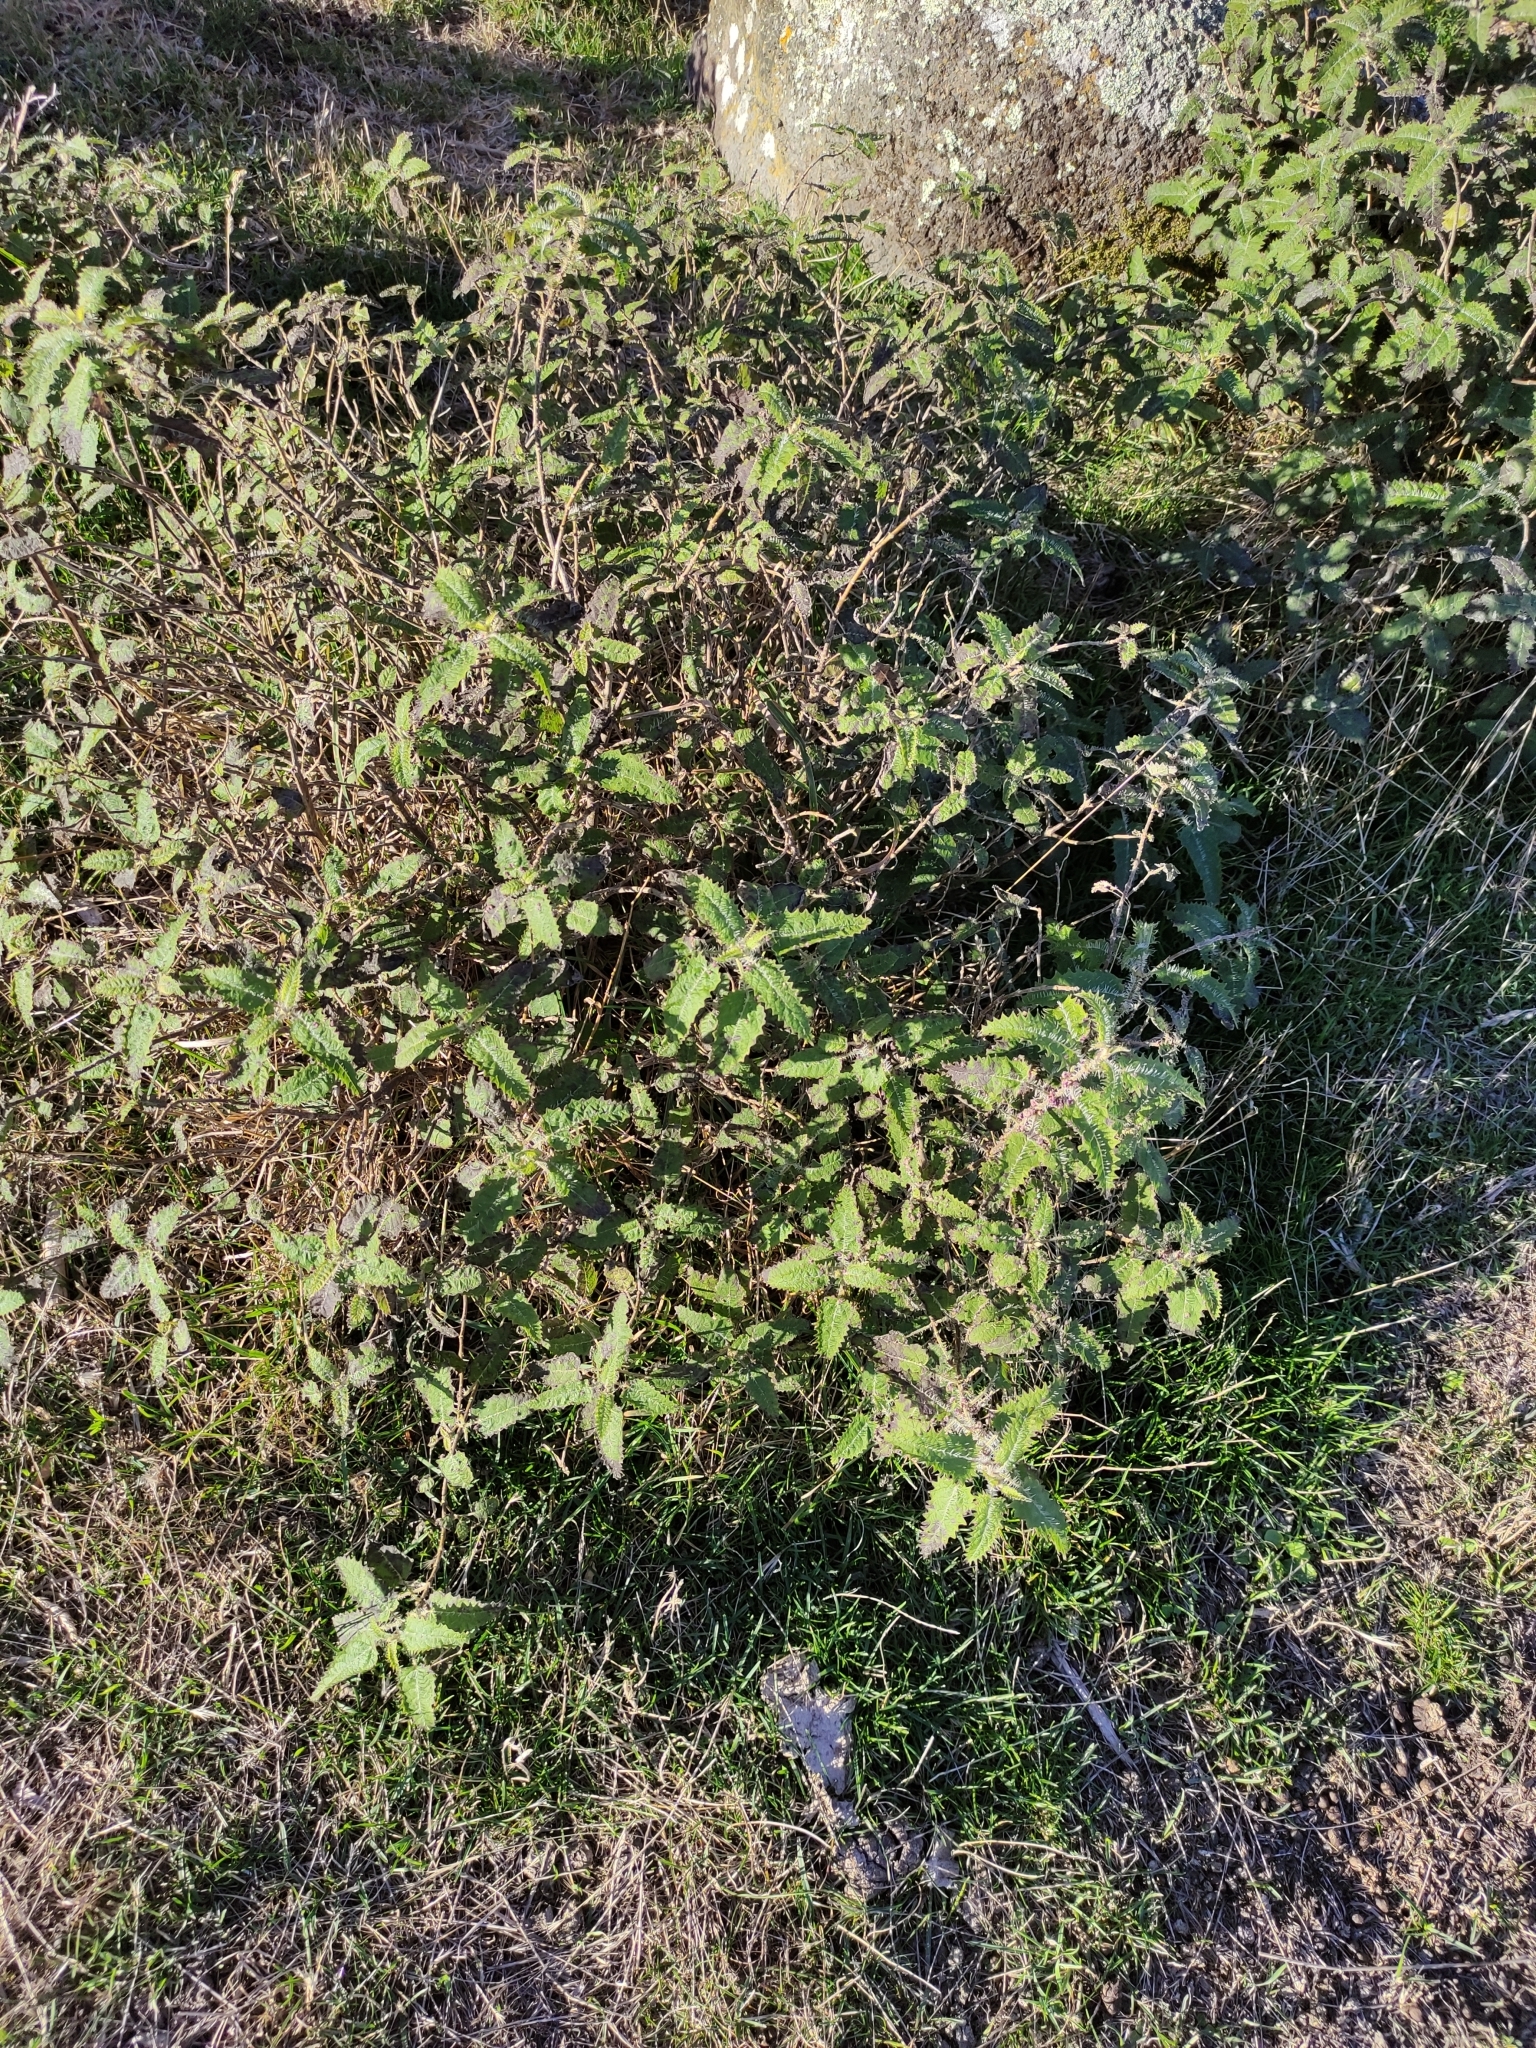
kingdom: Plantae
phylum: Tracheophyta
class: Magnoliopsida
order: Rosales
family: Urticaceae
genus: Urtica
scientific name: Urtica ferox
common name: Tree nettle
